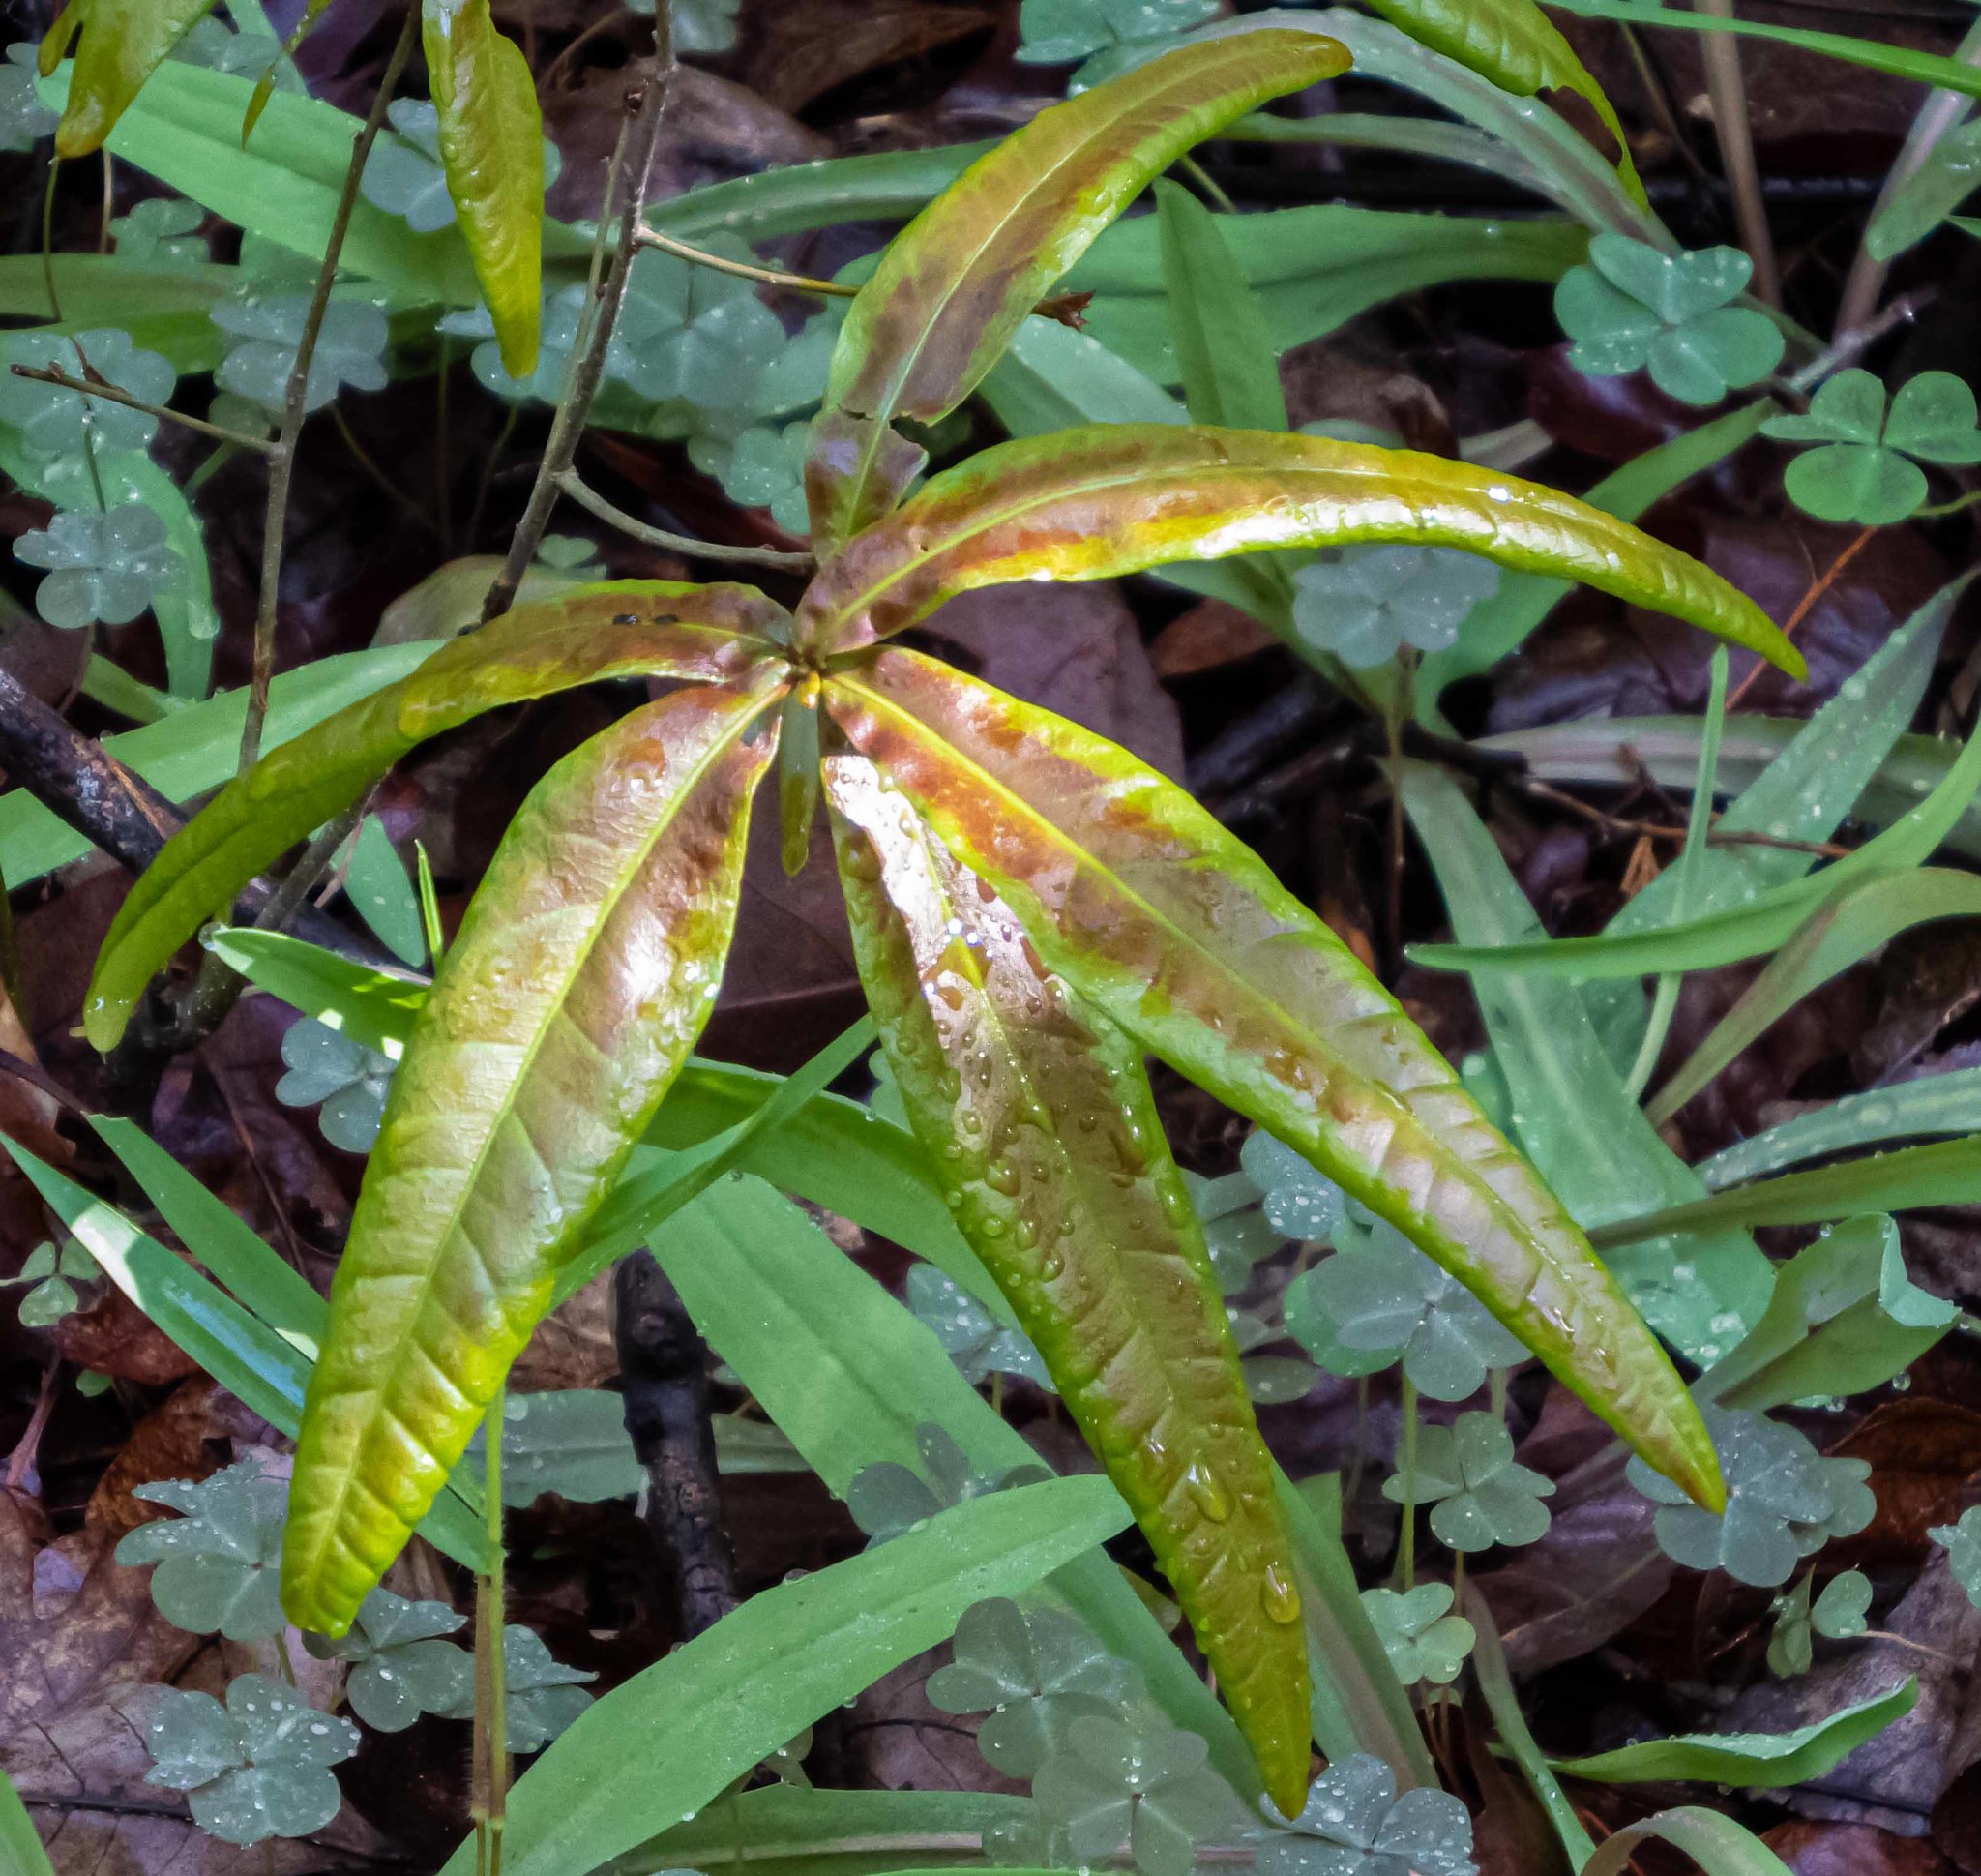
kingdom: Plantae
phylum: Tracheophyta
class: Magnoliopsida
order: Fagales
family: Fagaceae
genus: Quercus
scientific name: Quercus phellos
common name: Willow oak
